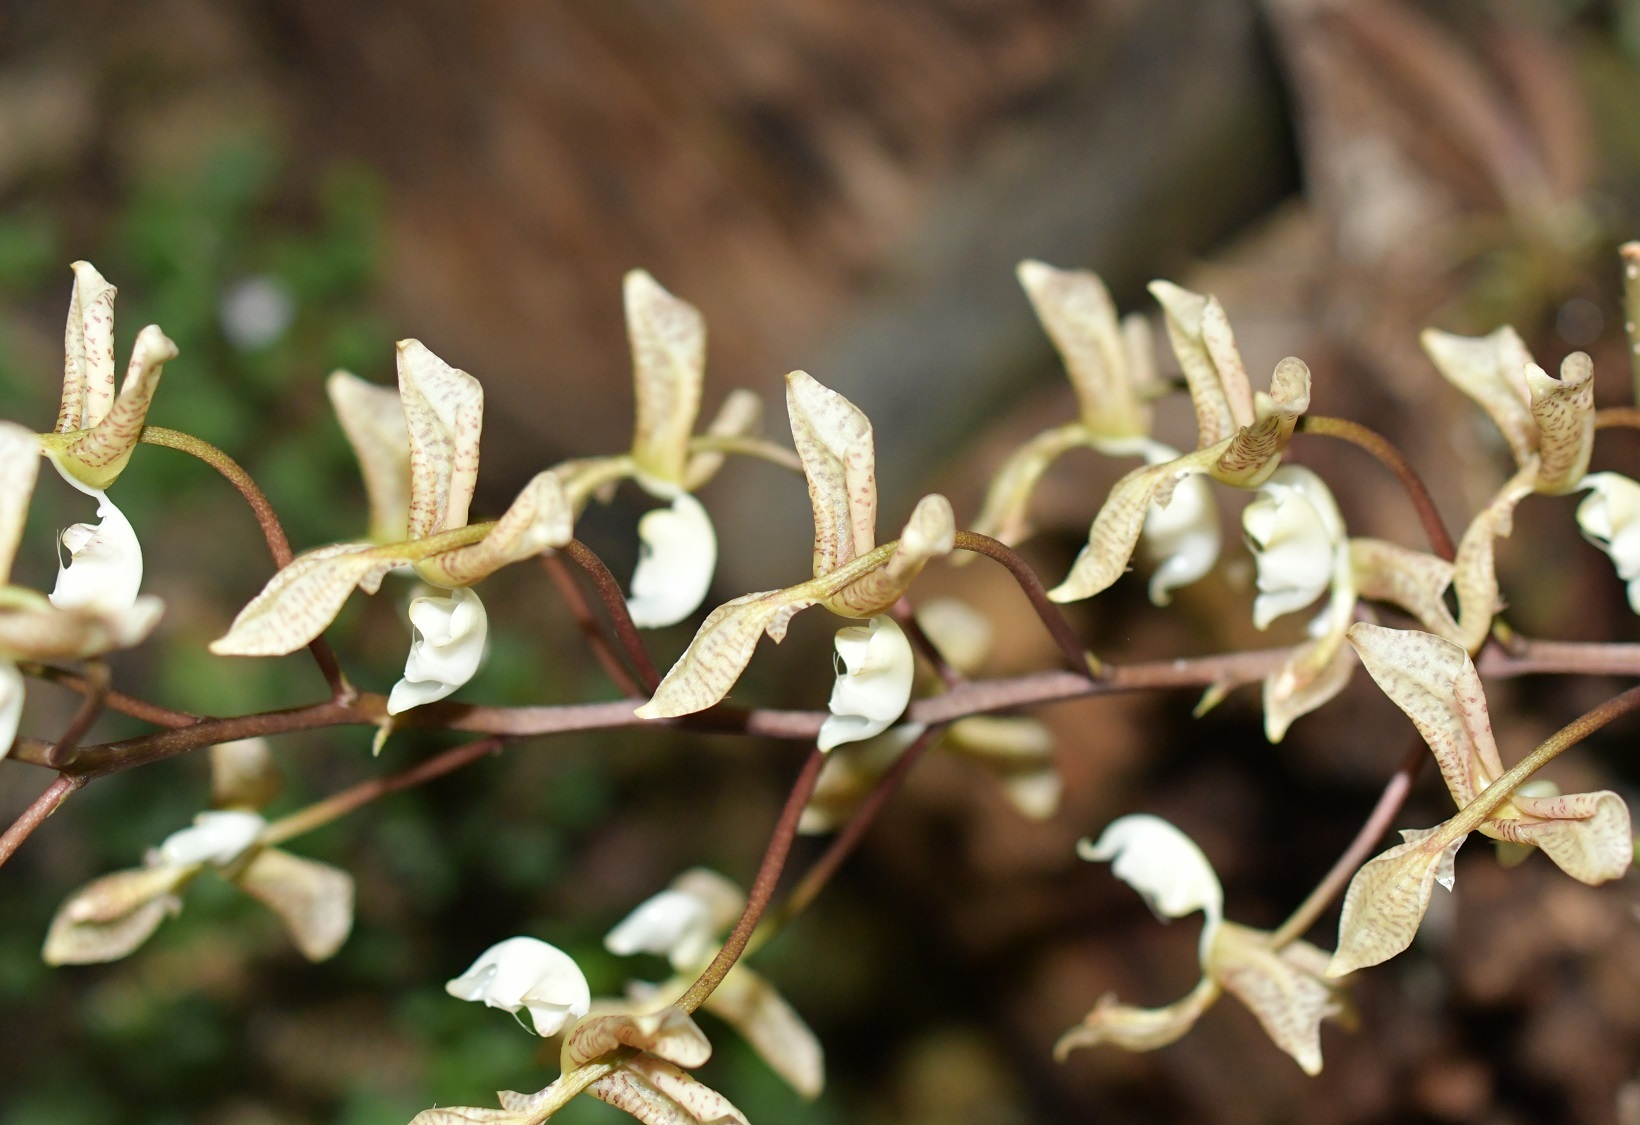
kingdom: Plantae
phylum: Tracheophyta
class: Liliopsida
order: Asparagales
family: Orchidaceae
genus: Gongora
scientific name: Gongora truncata
